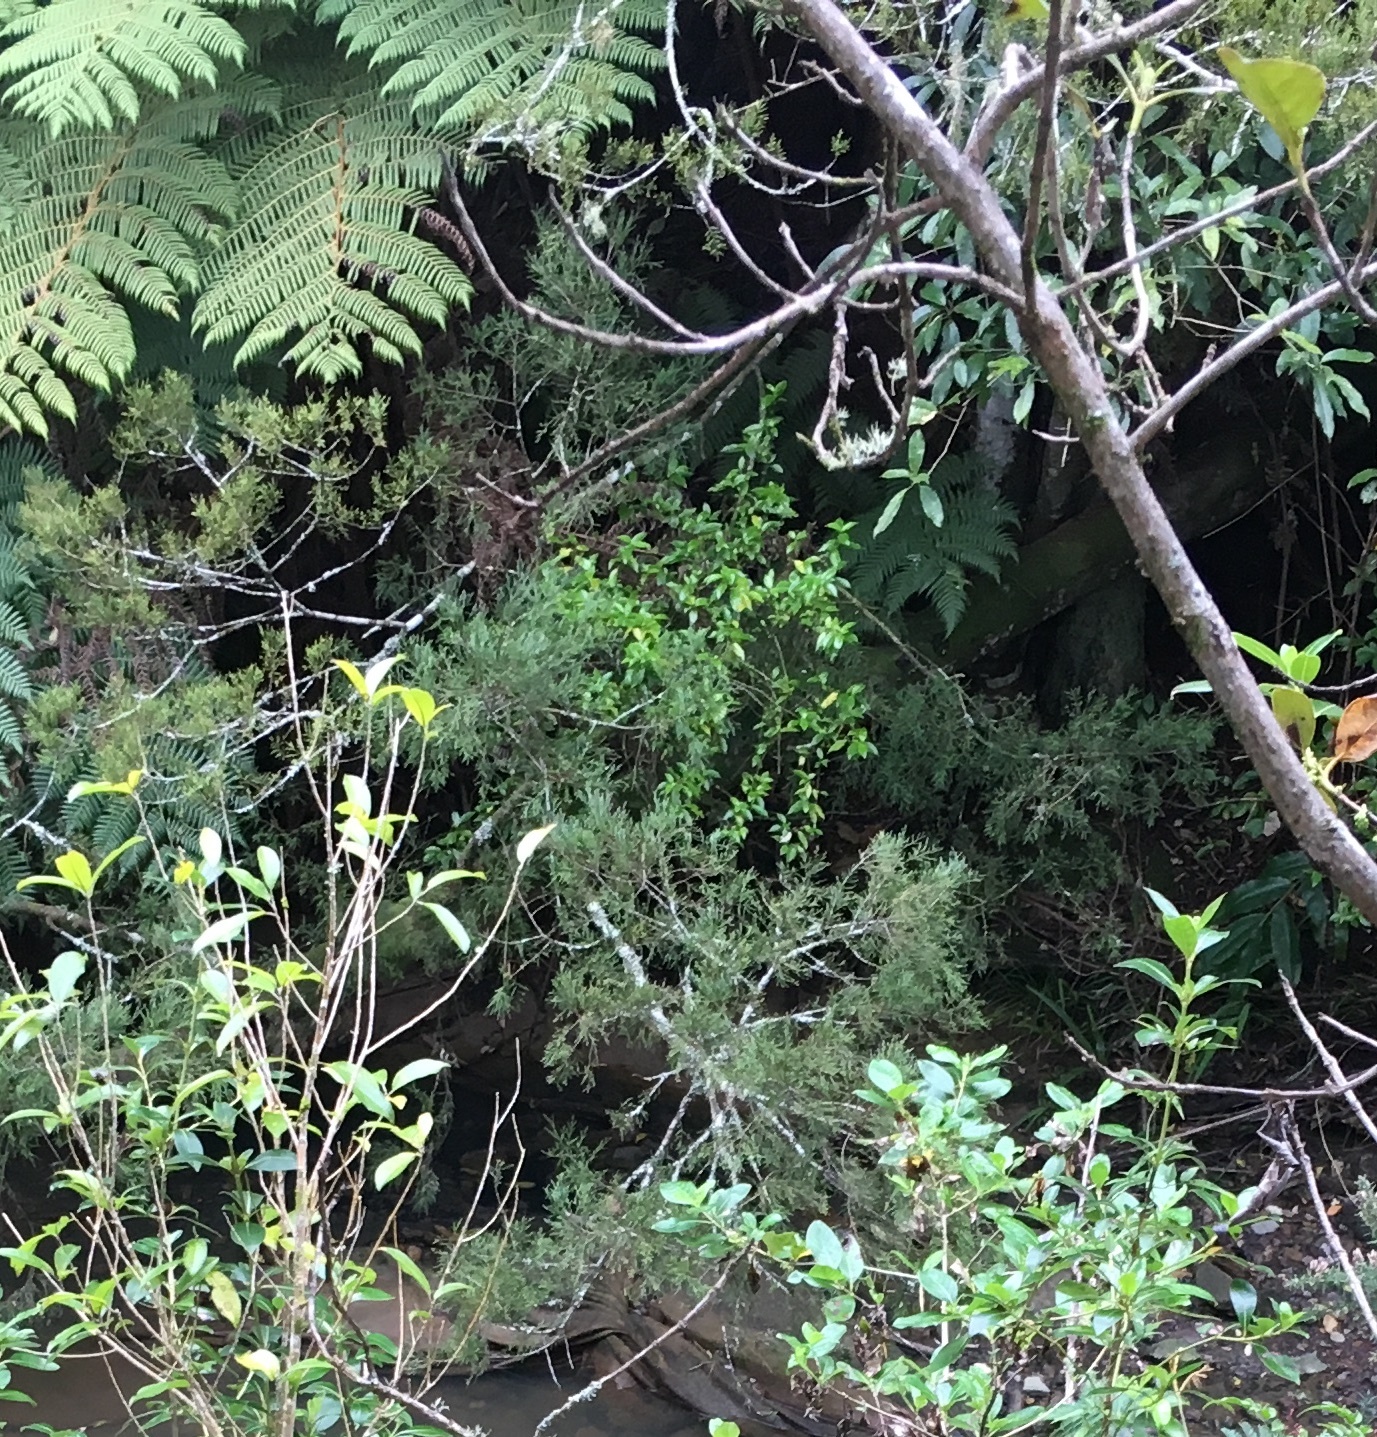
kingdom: Plantae
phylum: Tracheophyta
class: Magnoliopsida
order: Gentianales
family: Loganiaceae
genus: Geniostoma
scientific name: Geniostoma ligustrifolium
